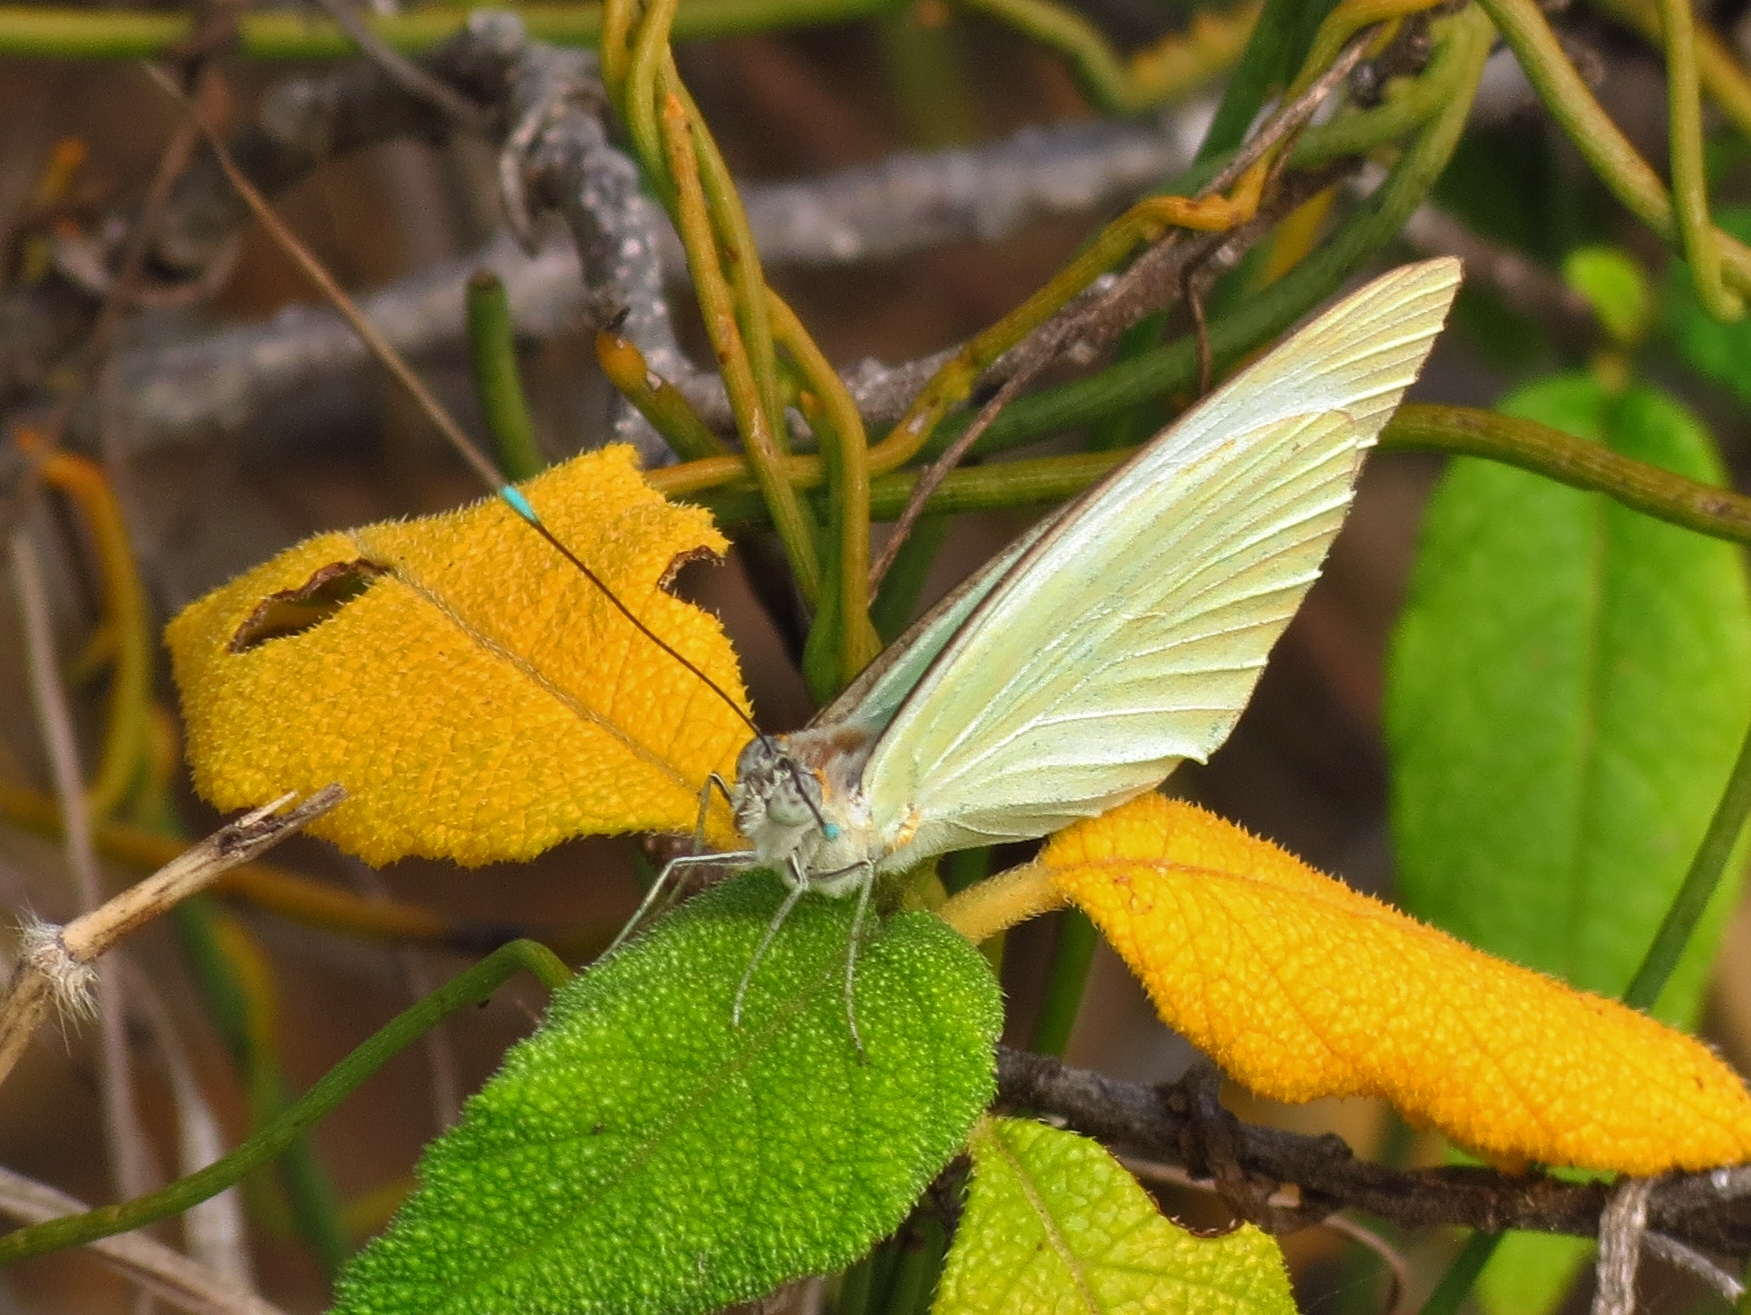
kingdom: Animalia
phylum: Arthropoda
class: Insecta
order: Lepidoptera
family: Pieridae
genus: Ascia
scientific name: Ascia monuste
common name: Great southern white
